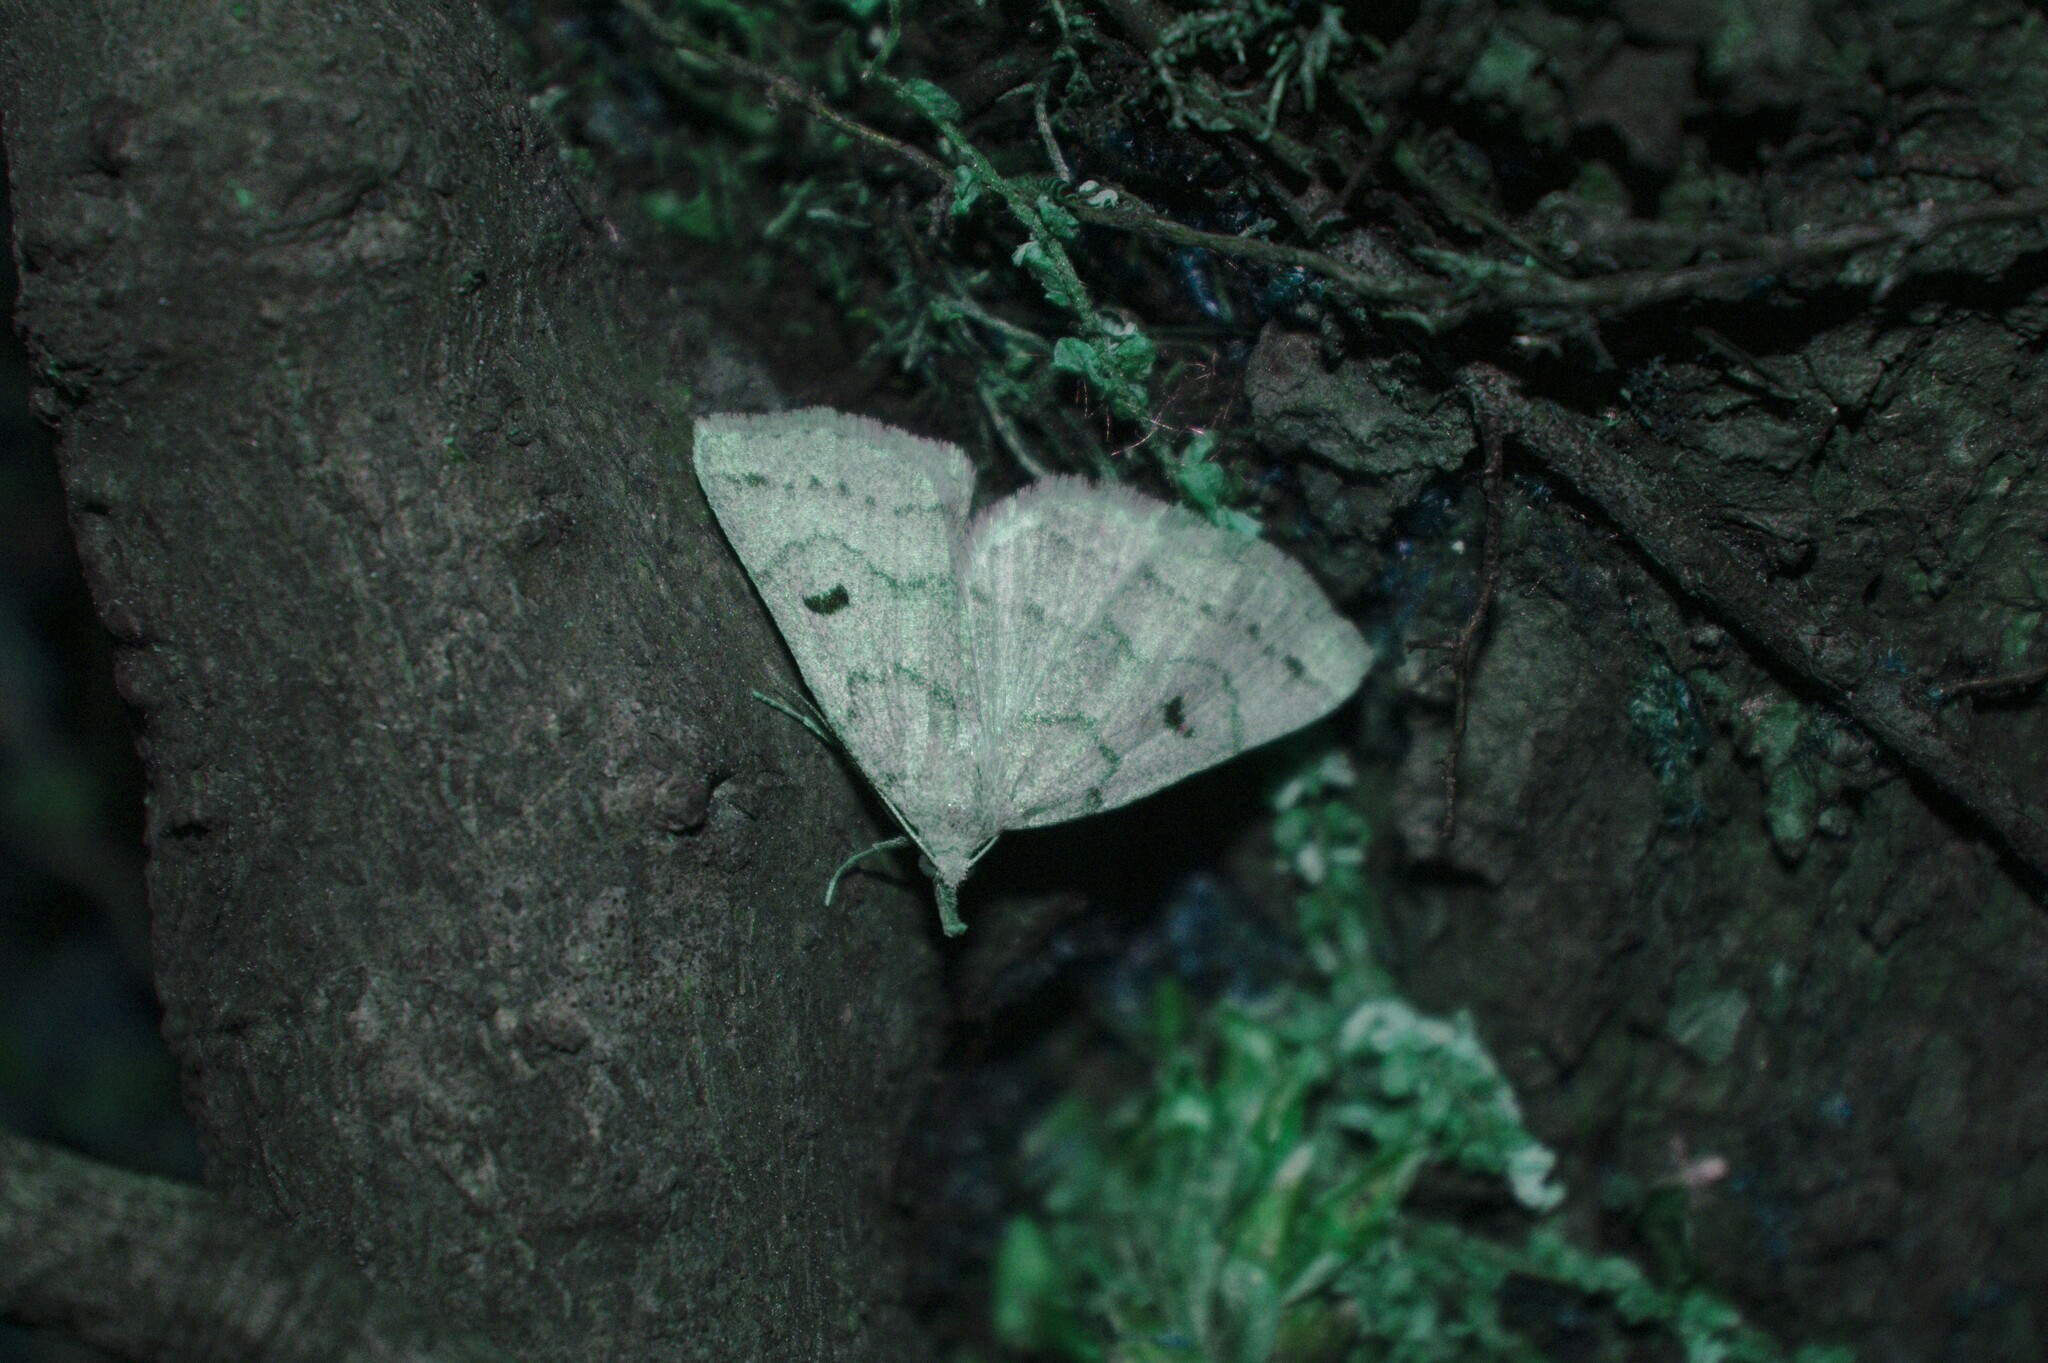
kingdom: Animalia
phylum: Arthropoda
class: Insecta
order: Lepidoptera
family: Erebidae
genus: Macrochilo
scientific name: Macrochilo morbidalis
